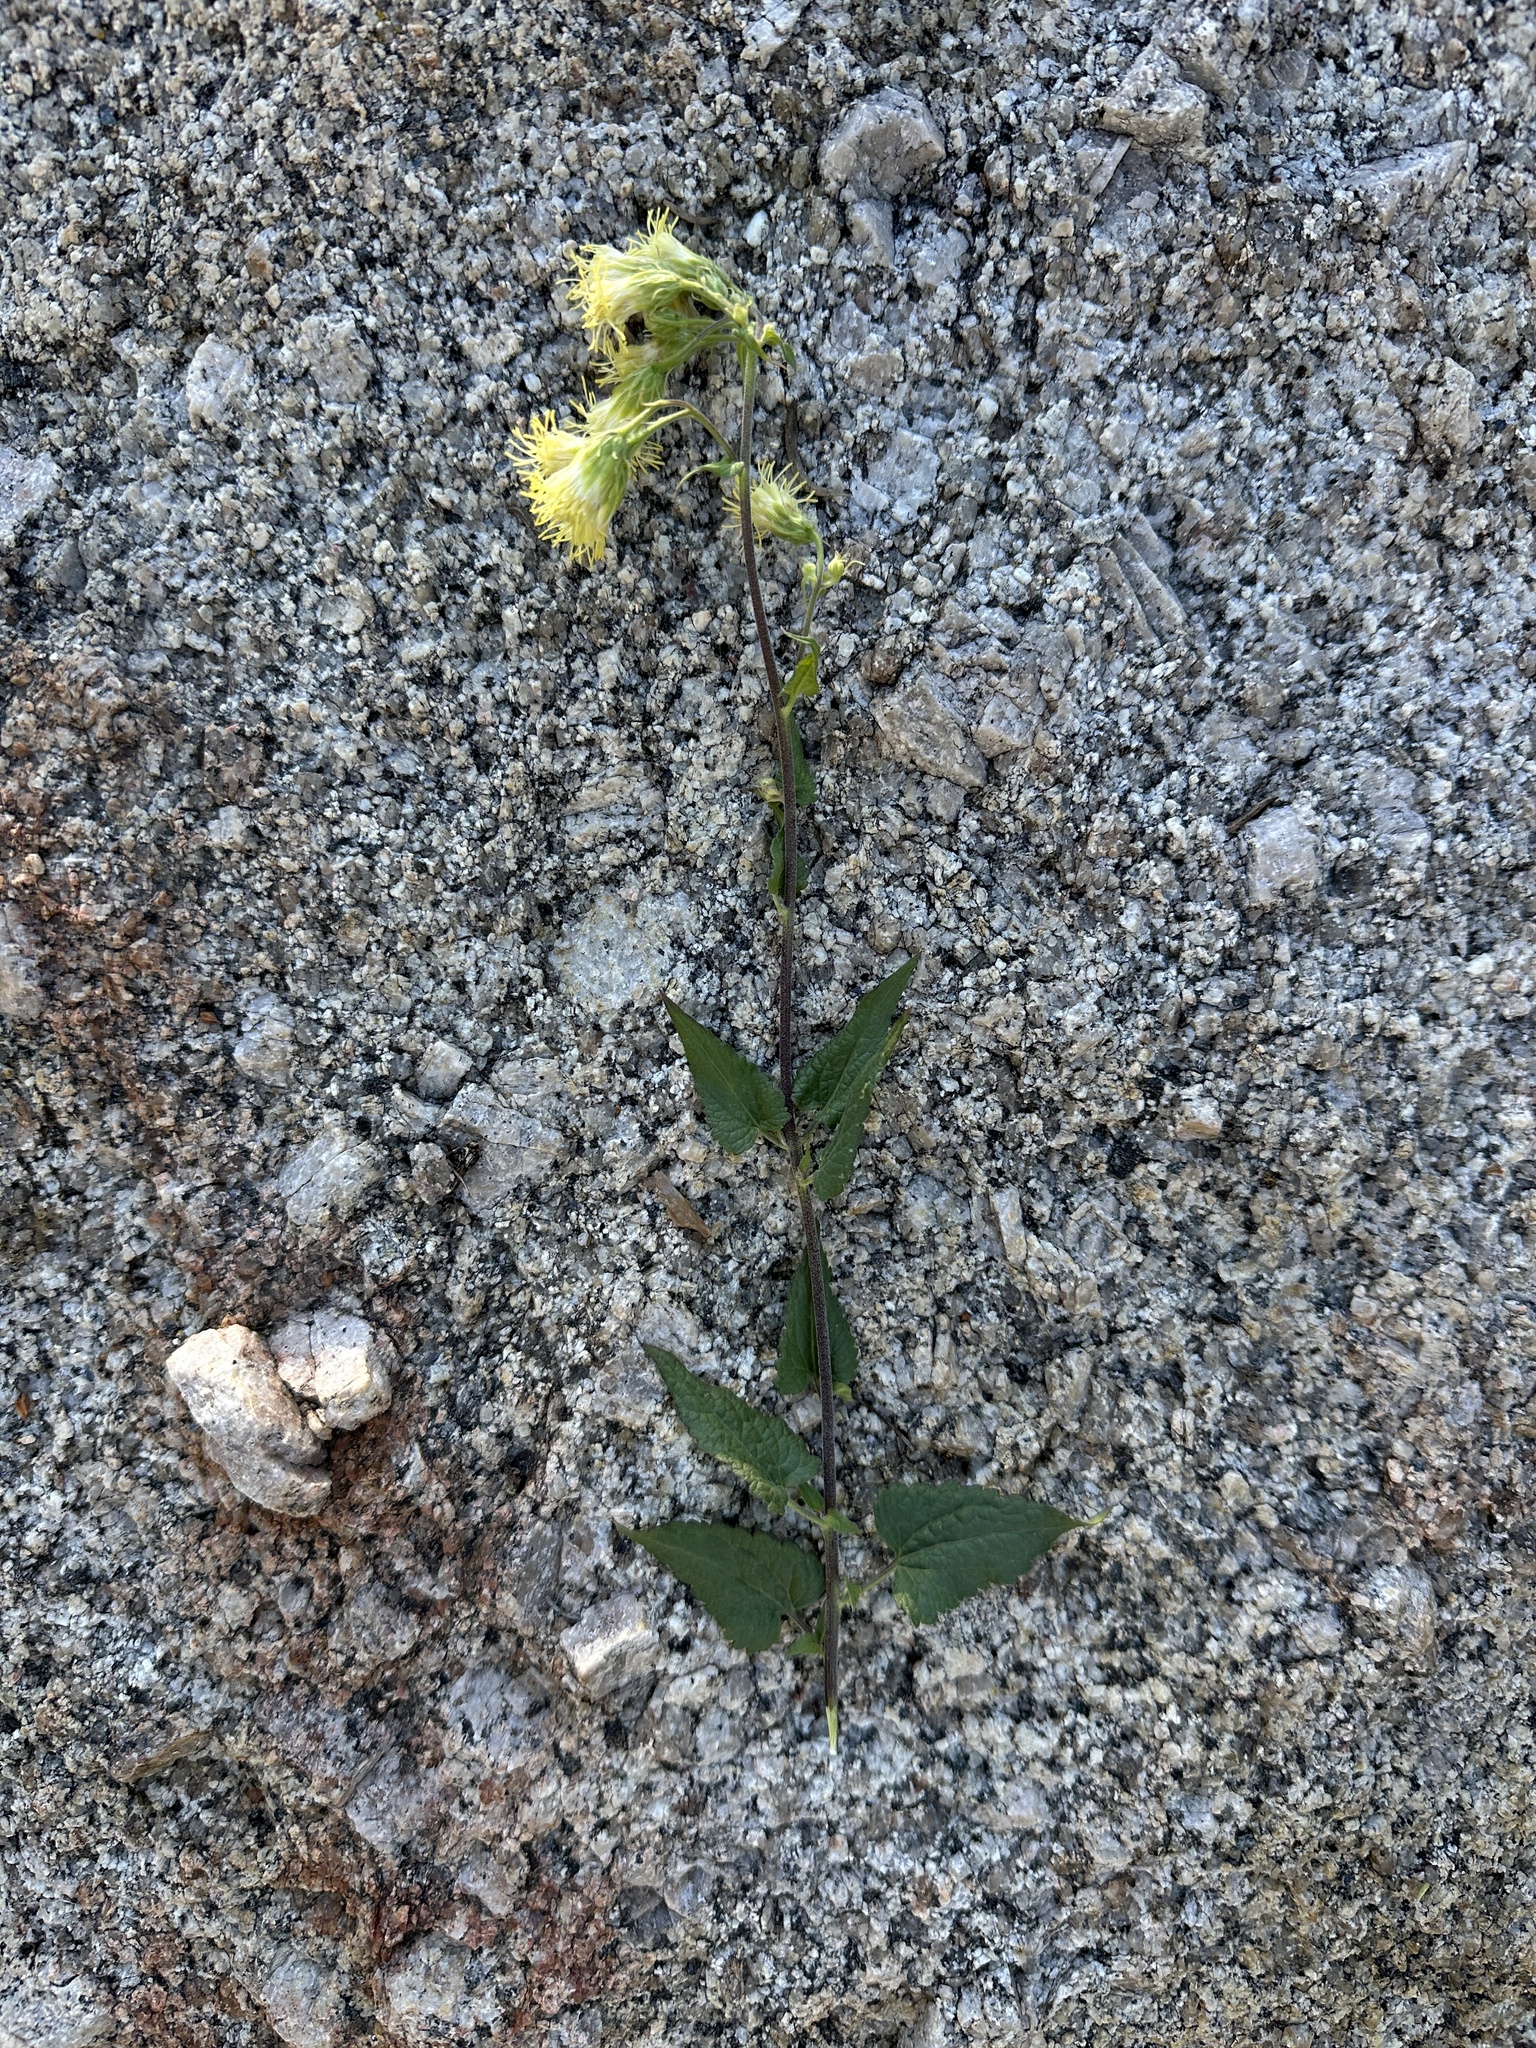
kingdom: Plantae
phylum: Tracheophyta
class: Magnoliopsida
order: Asterales
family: Asteraceae
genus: Brickellia
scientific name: Brickellia grandiflora
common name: Large-flowered brickellia
